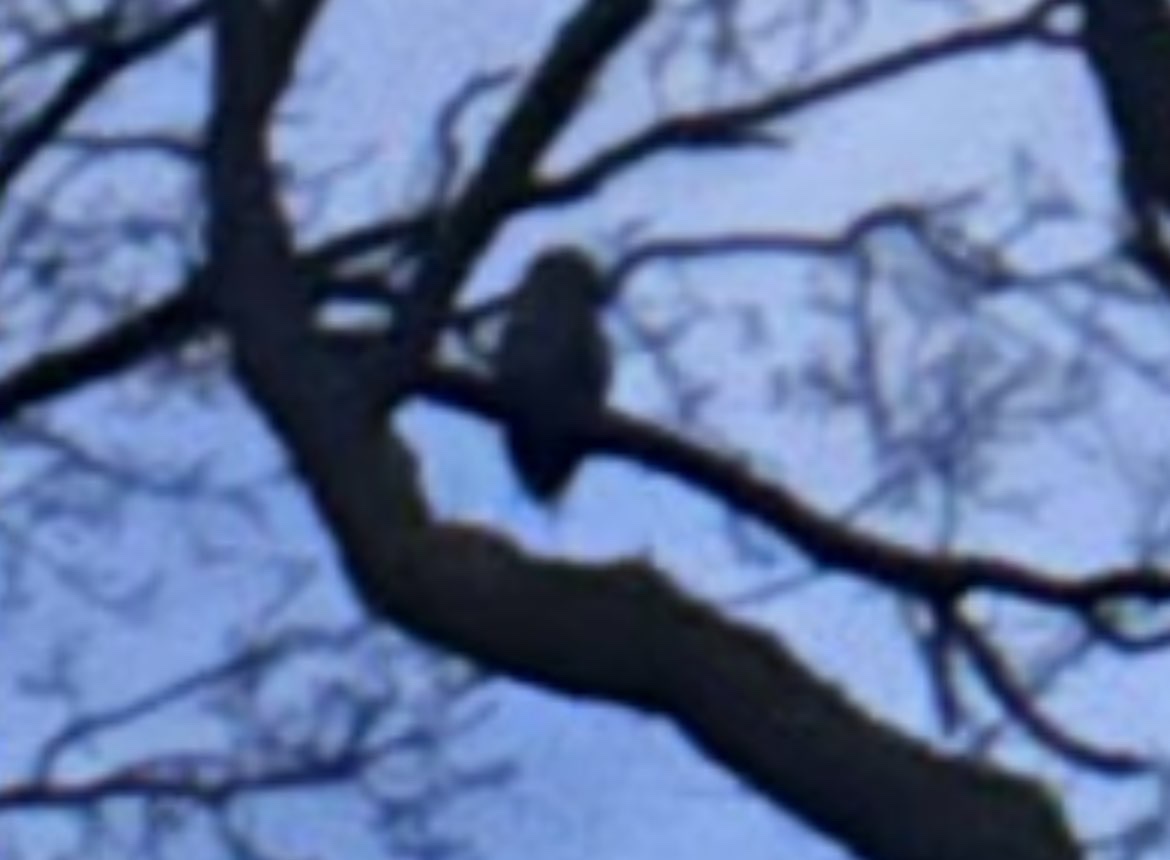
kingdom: Animalia
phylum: Chordata
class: Aves
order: Strigiformes
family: Strigidae
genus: Strix
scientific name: Strix aluco
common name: Tawny owl
